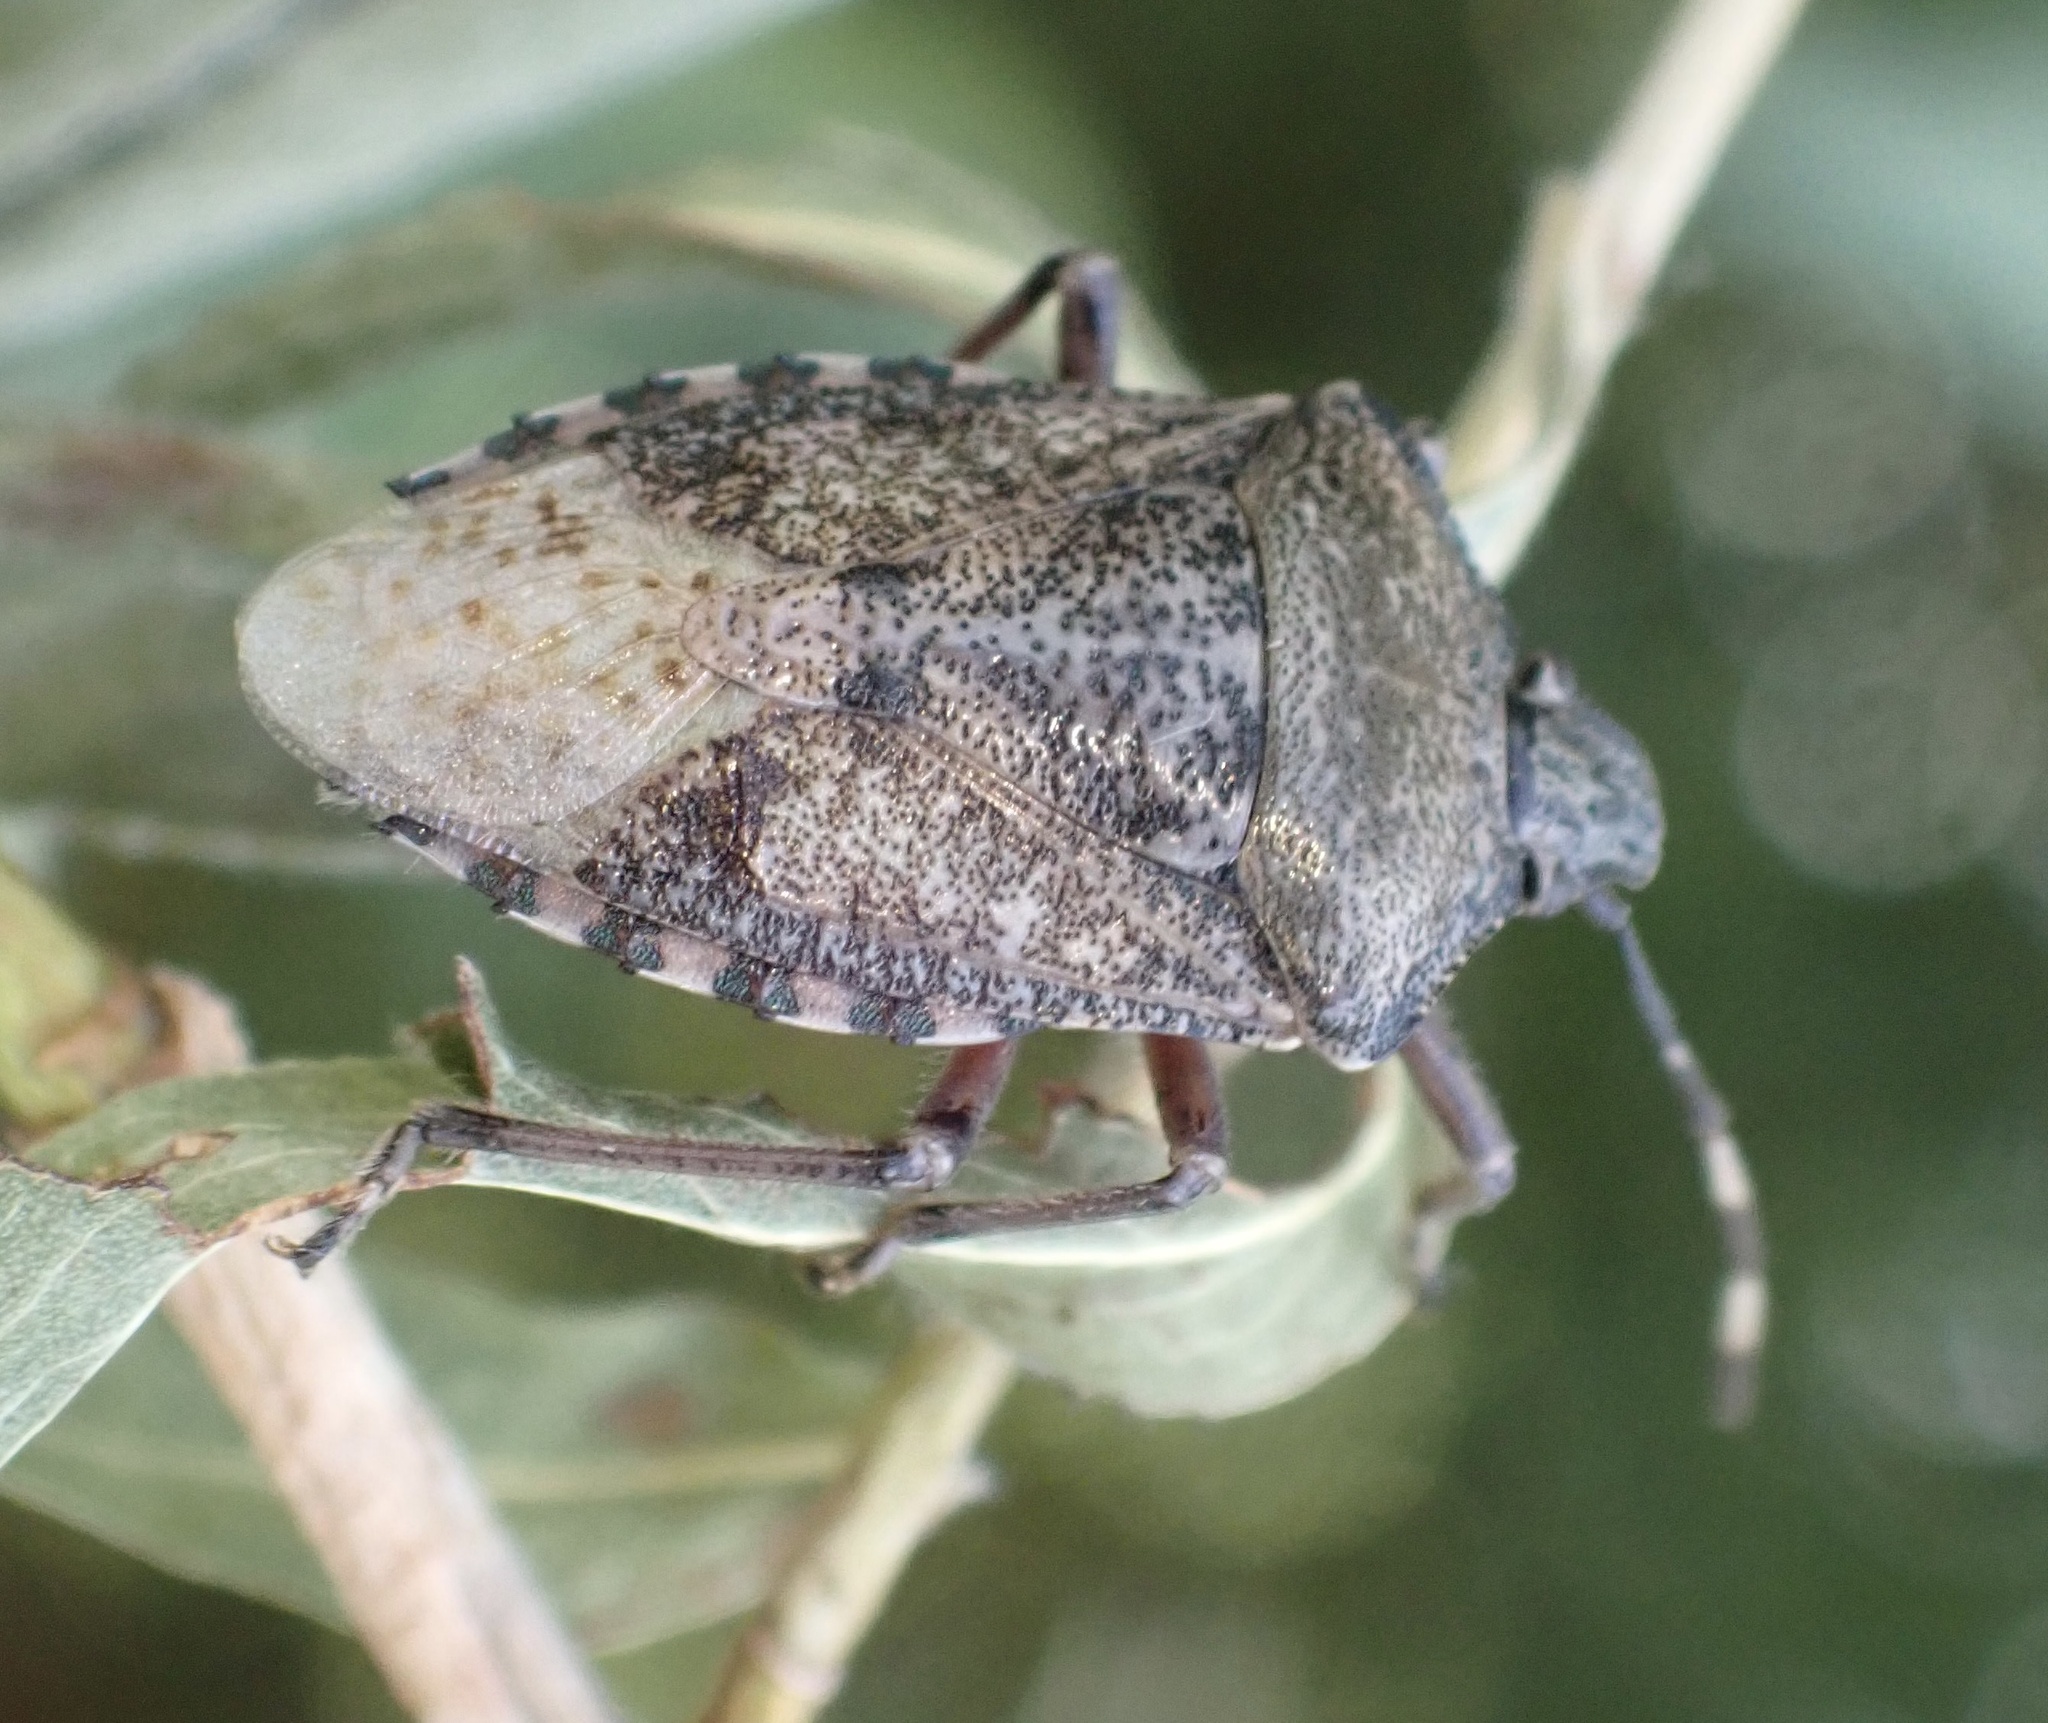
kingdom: Animalia
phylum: Arthropoda
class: Insecta
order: Hemiptera
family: Pentatomidae
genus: Rhaphigaster
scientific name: Rhaphigaster nebulosa
